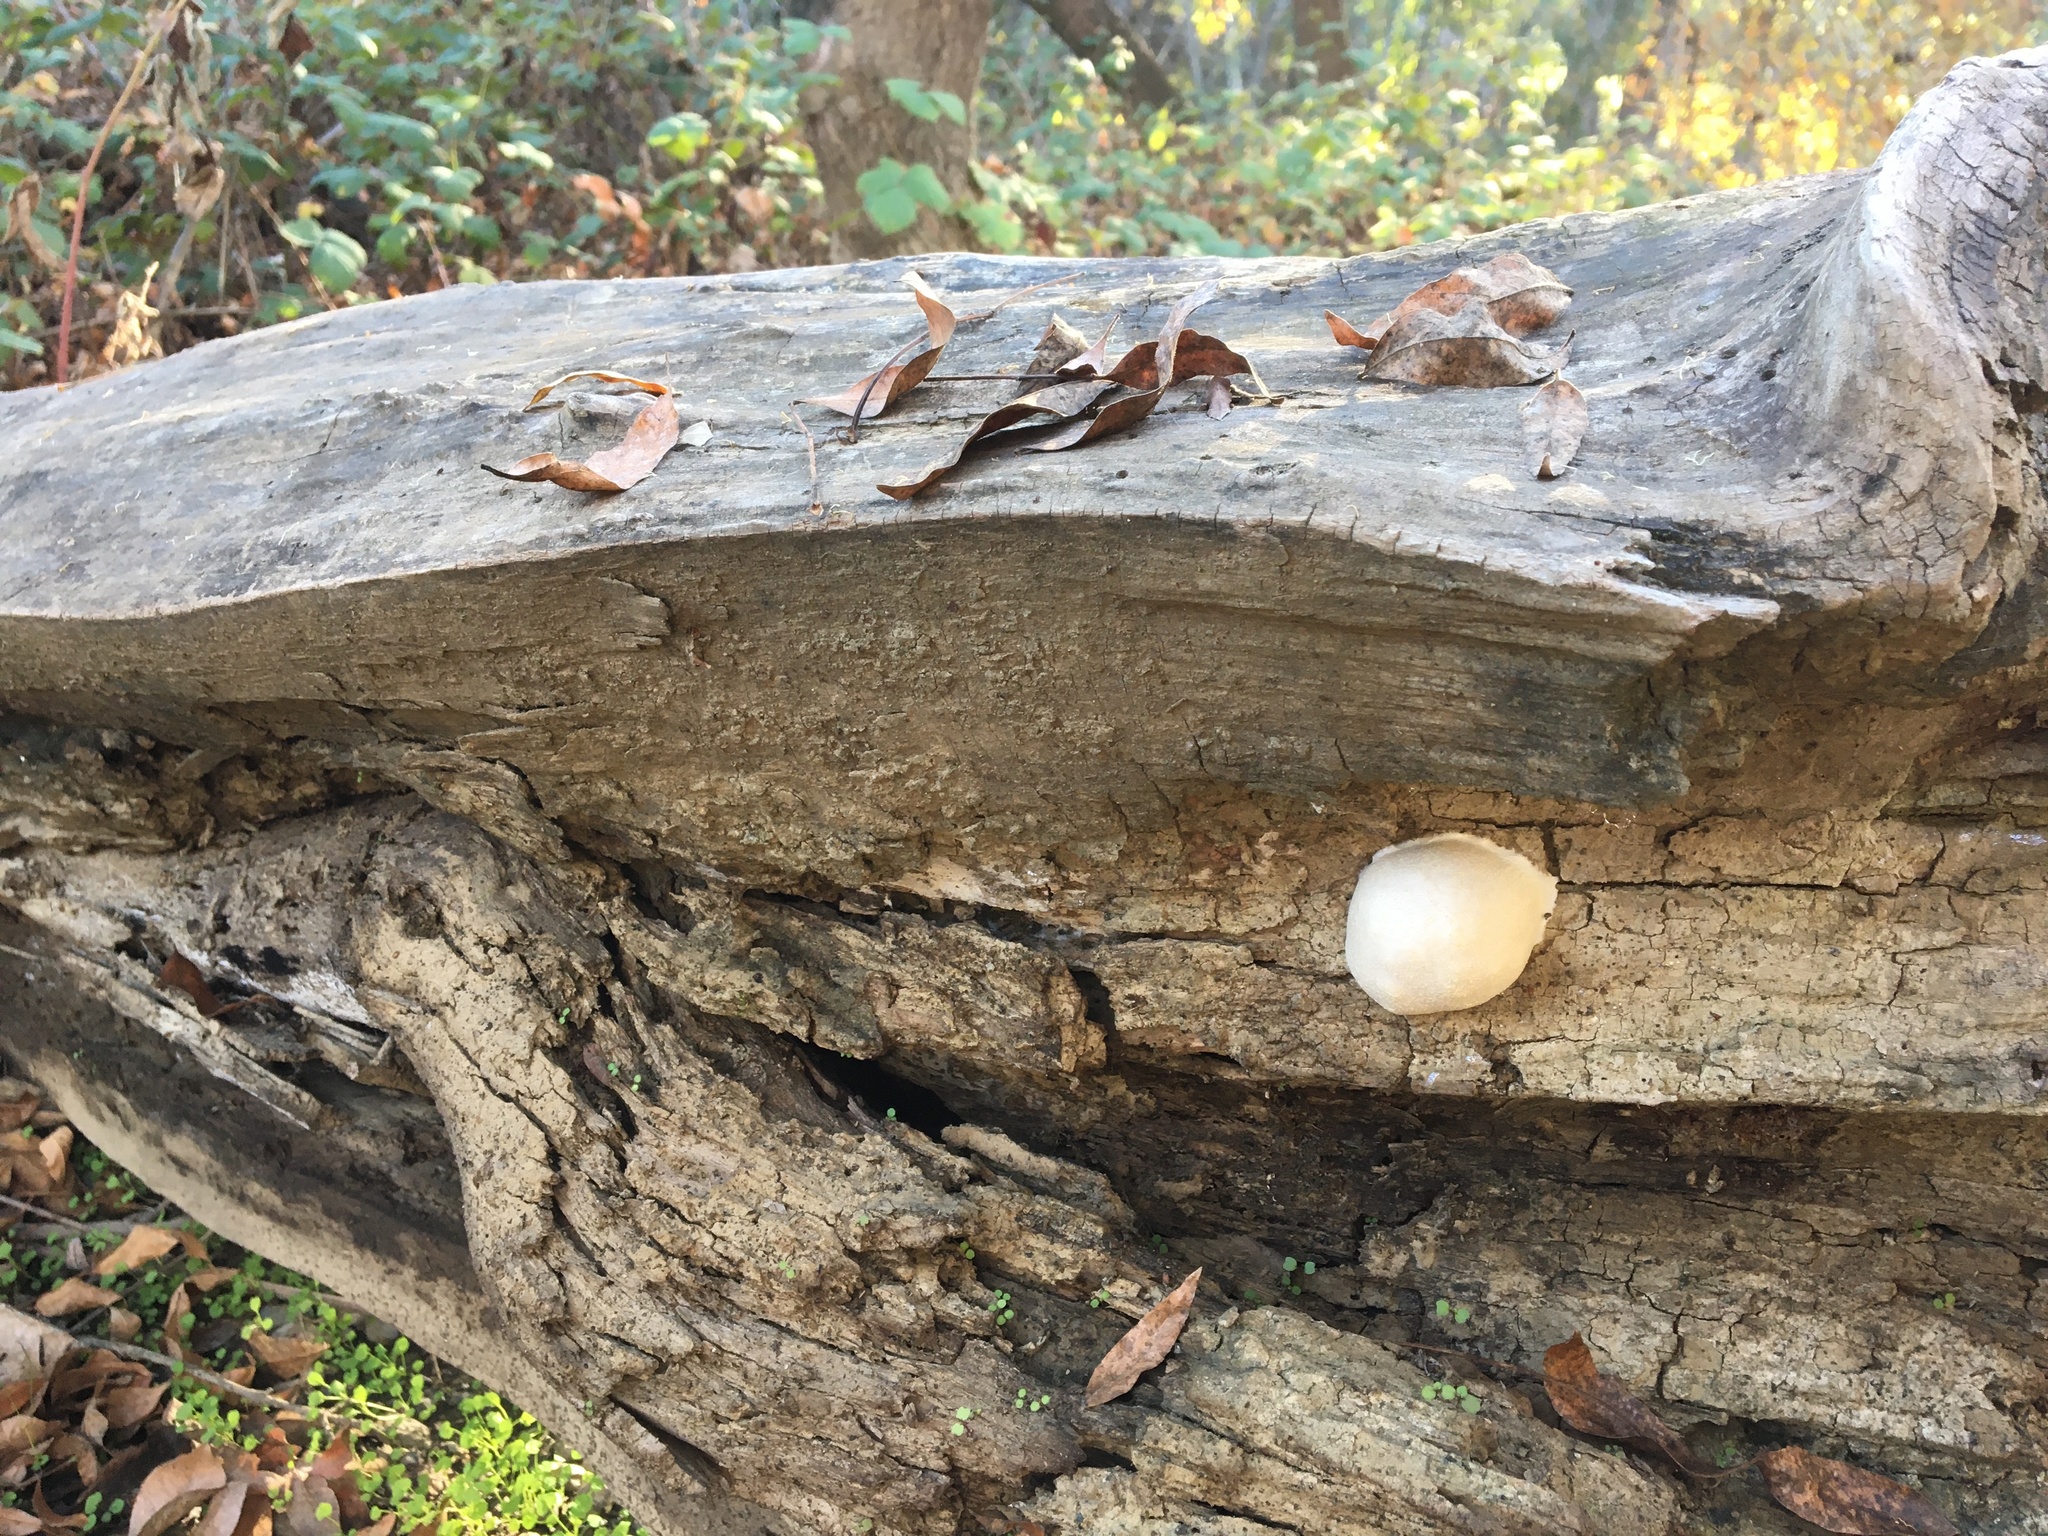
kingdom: Protozoa
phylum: Mycetozoa
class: Myxomycetes
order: Cribrariales
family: Tubiferaceae
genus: Reticularia
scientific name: Reticularia lycoperdon
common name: False puffball
